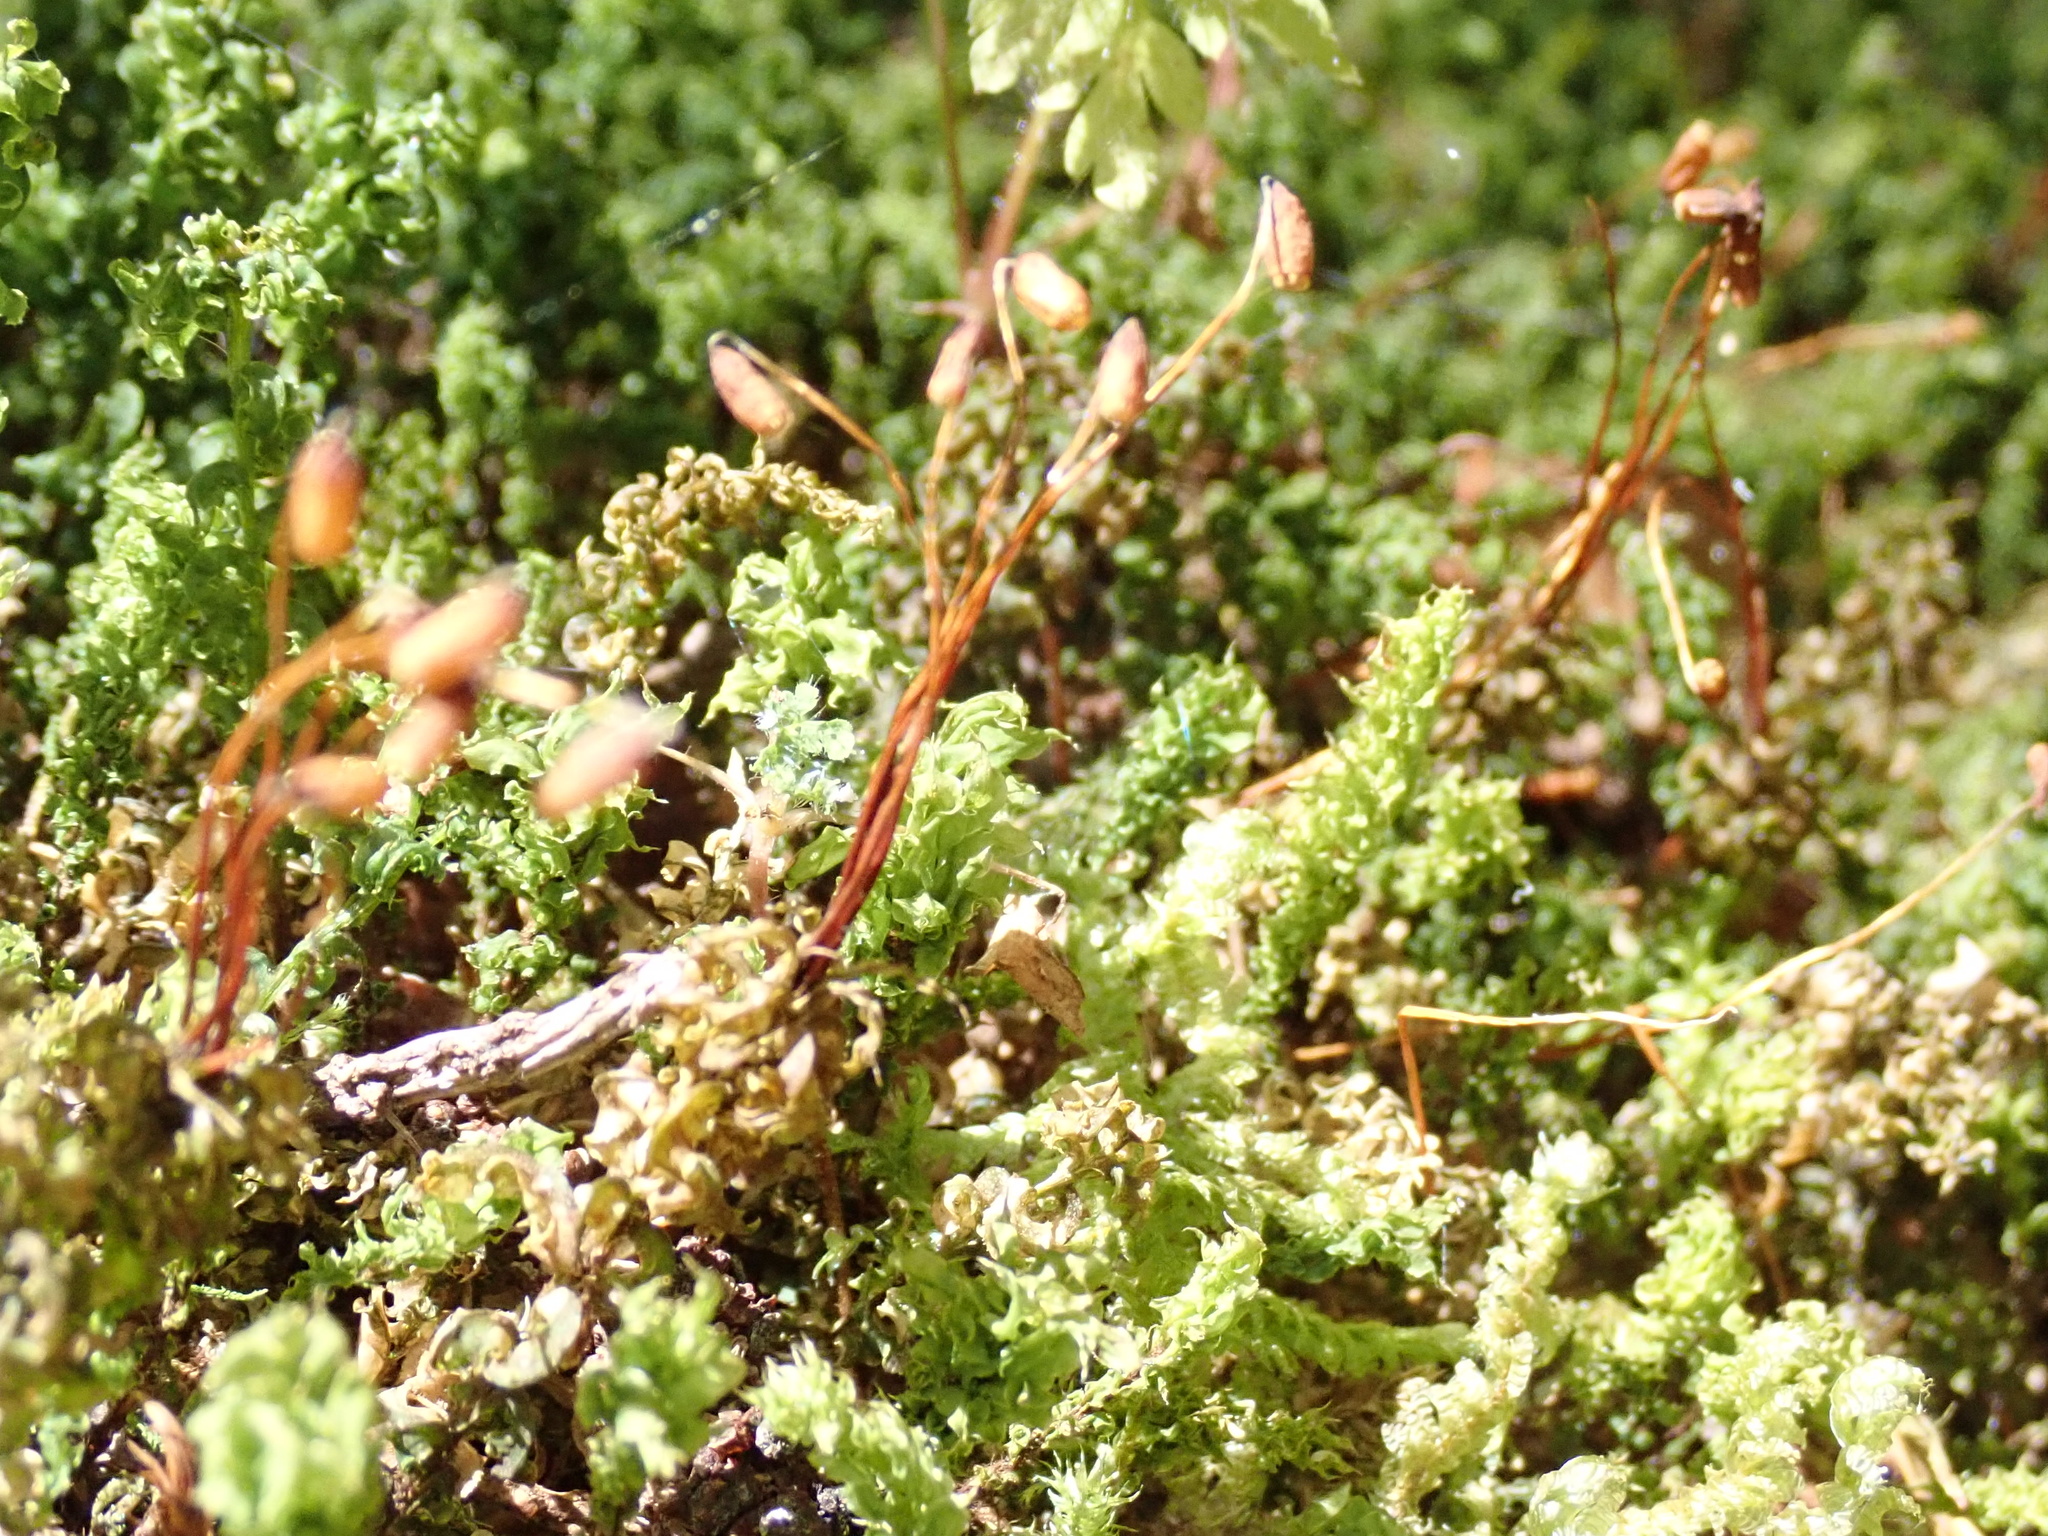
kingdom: Plantae
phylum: Bryophyta
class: Bryopsida
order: Bryales
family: Mniaceae
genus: Plagiomnium
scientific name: Plagiomnium insigne
